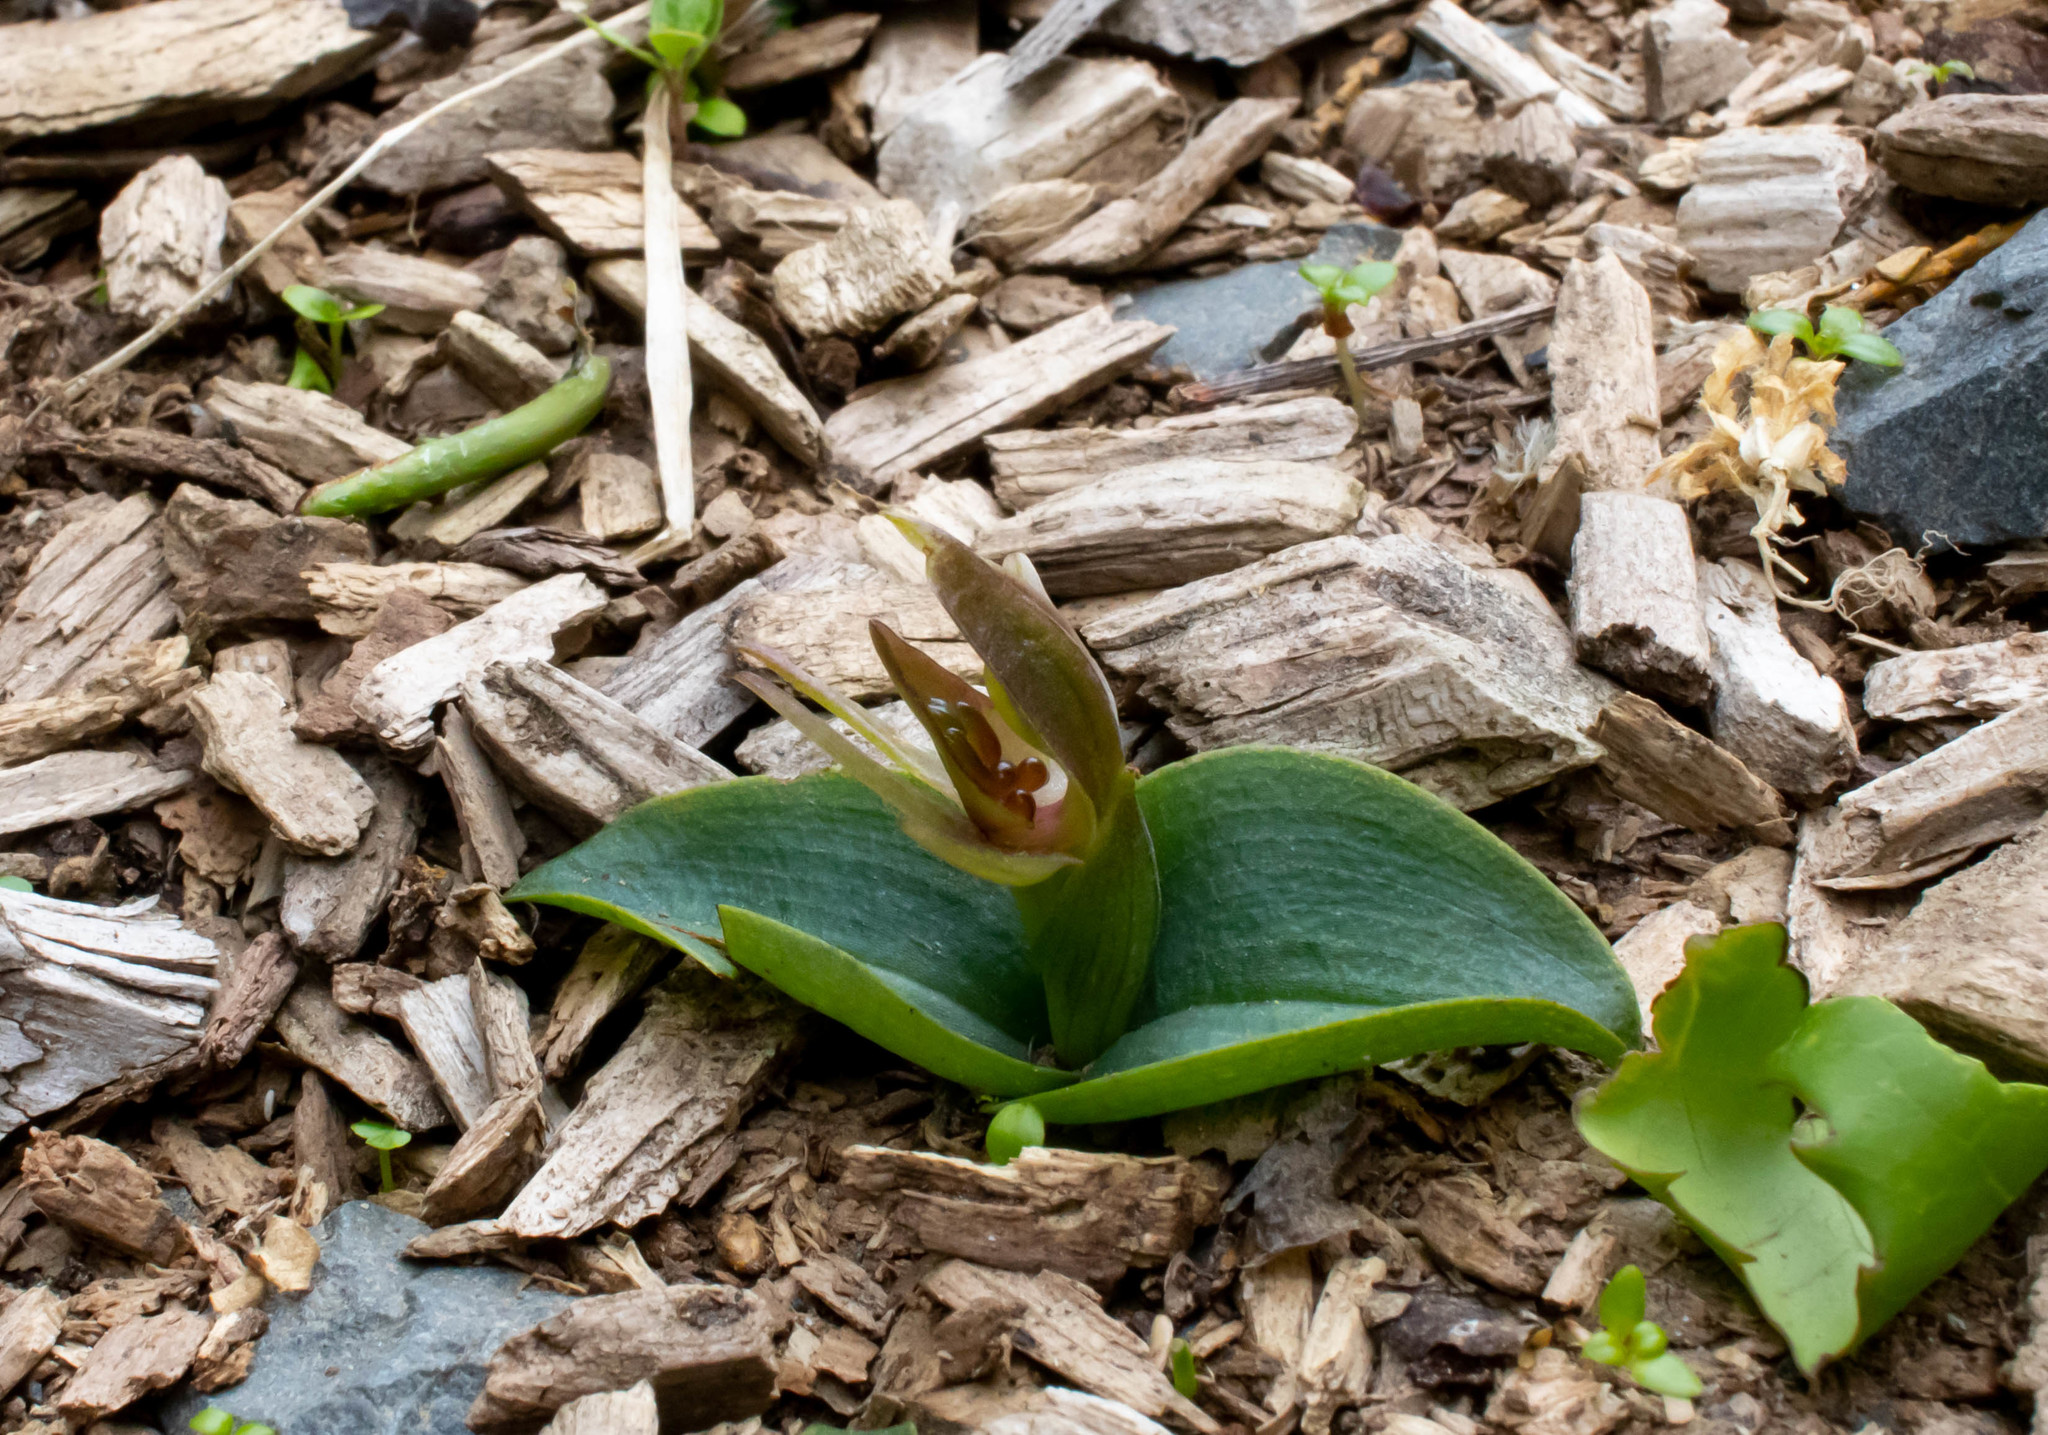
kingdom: Plantae
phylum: Tracheophyta
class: Liliopsida
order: Asparagales
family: Orchidaceae
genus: Chiloglottis
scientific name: Chiloglottis cornuta
